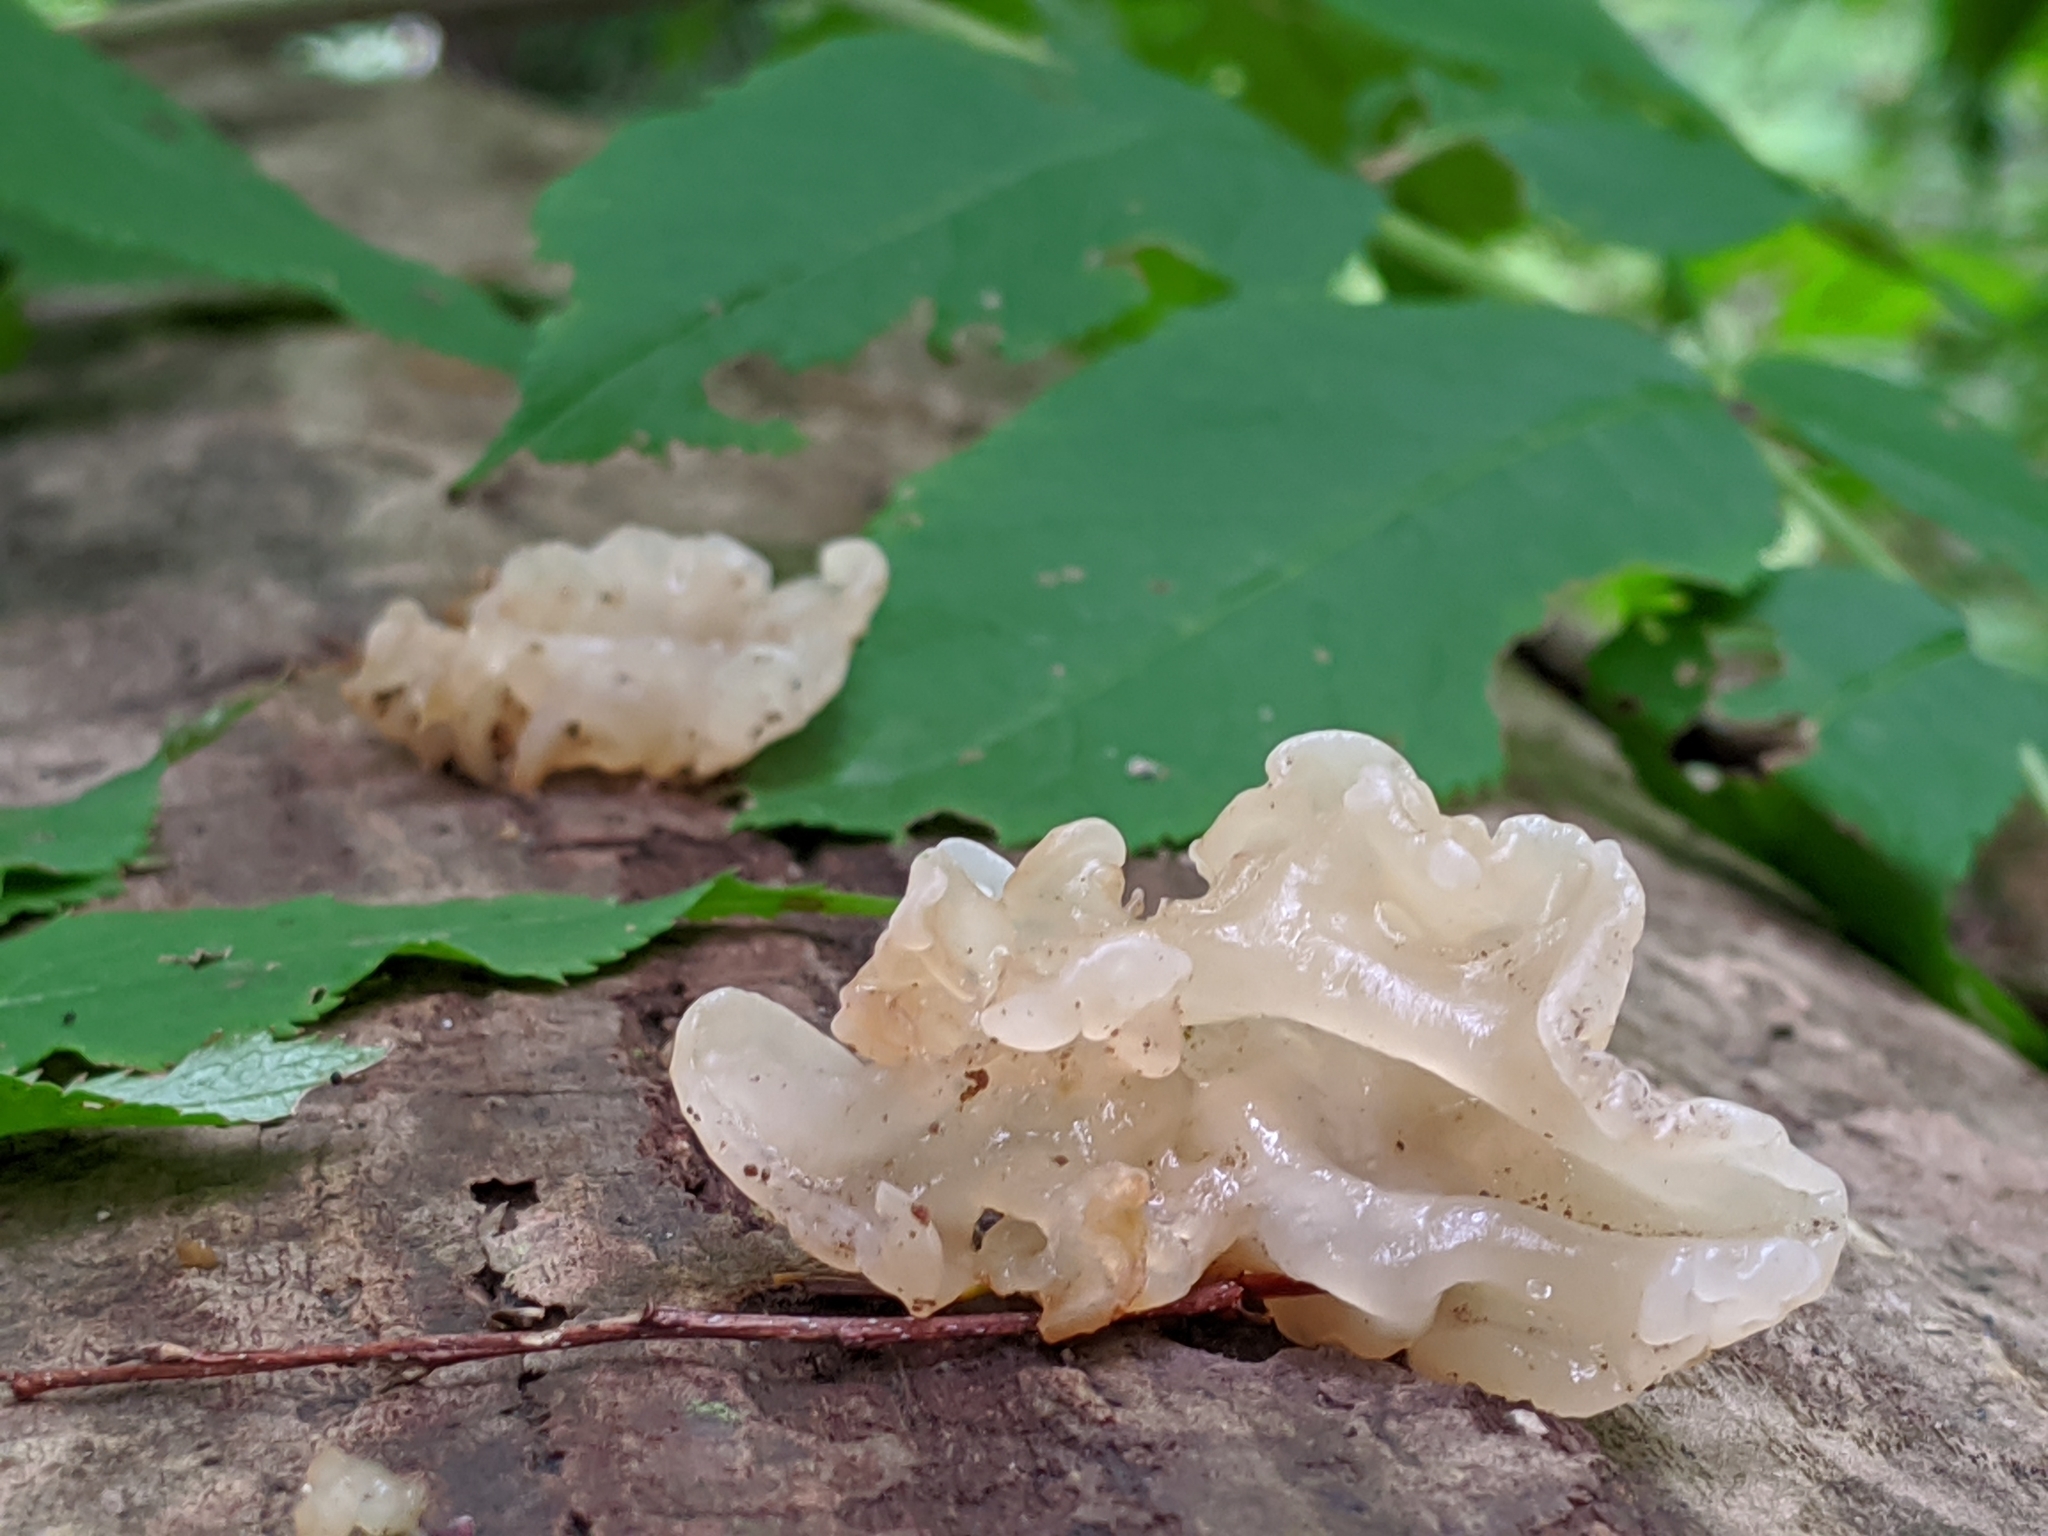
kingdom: Fungi
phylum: Basidiomycota
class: Agaricomycetes
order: Auriculariales
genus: Ductifera
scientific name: Ductifera pululahuana
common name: White jelly fungus
